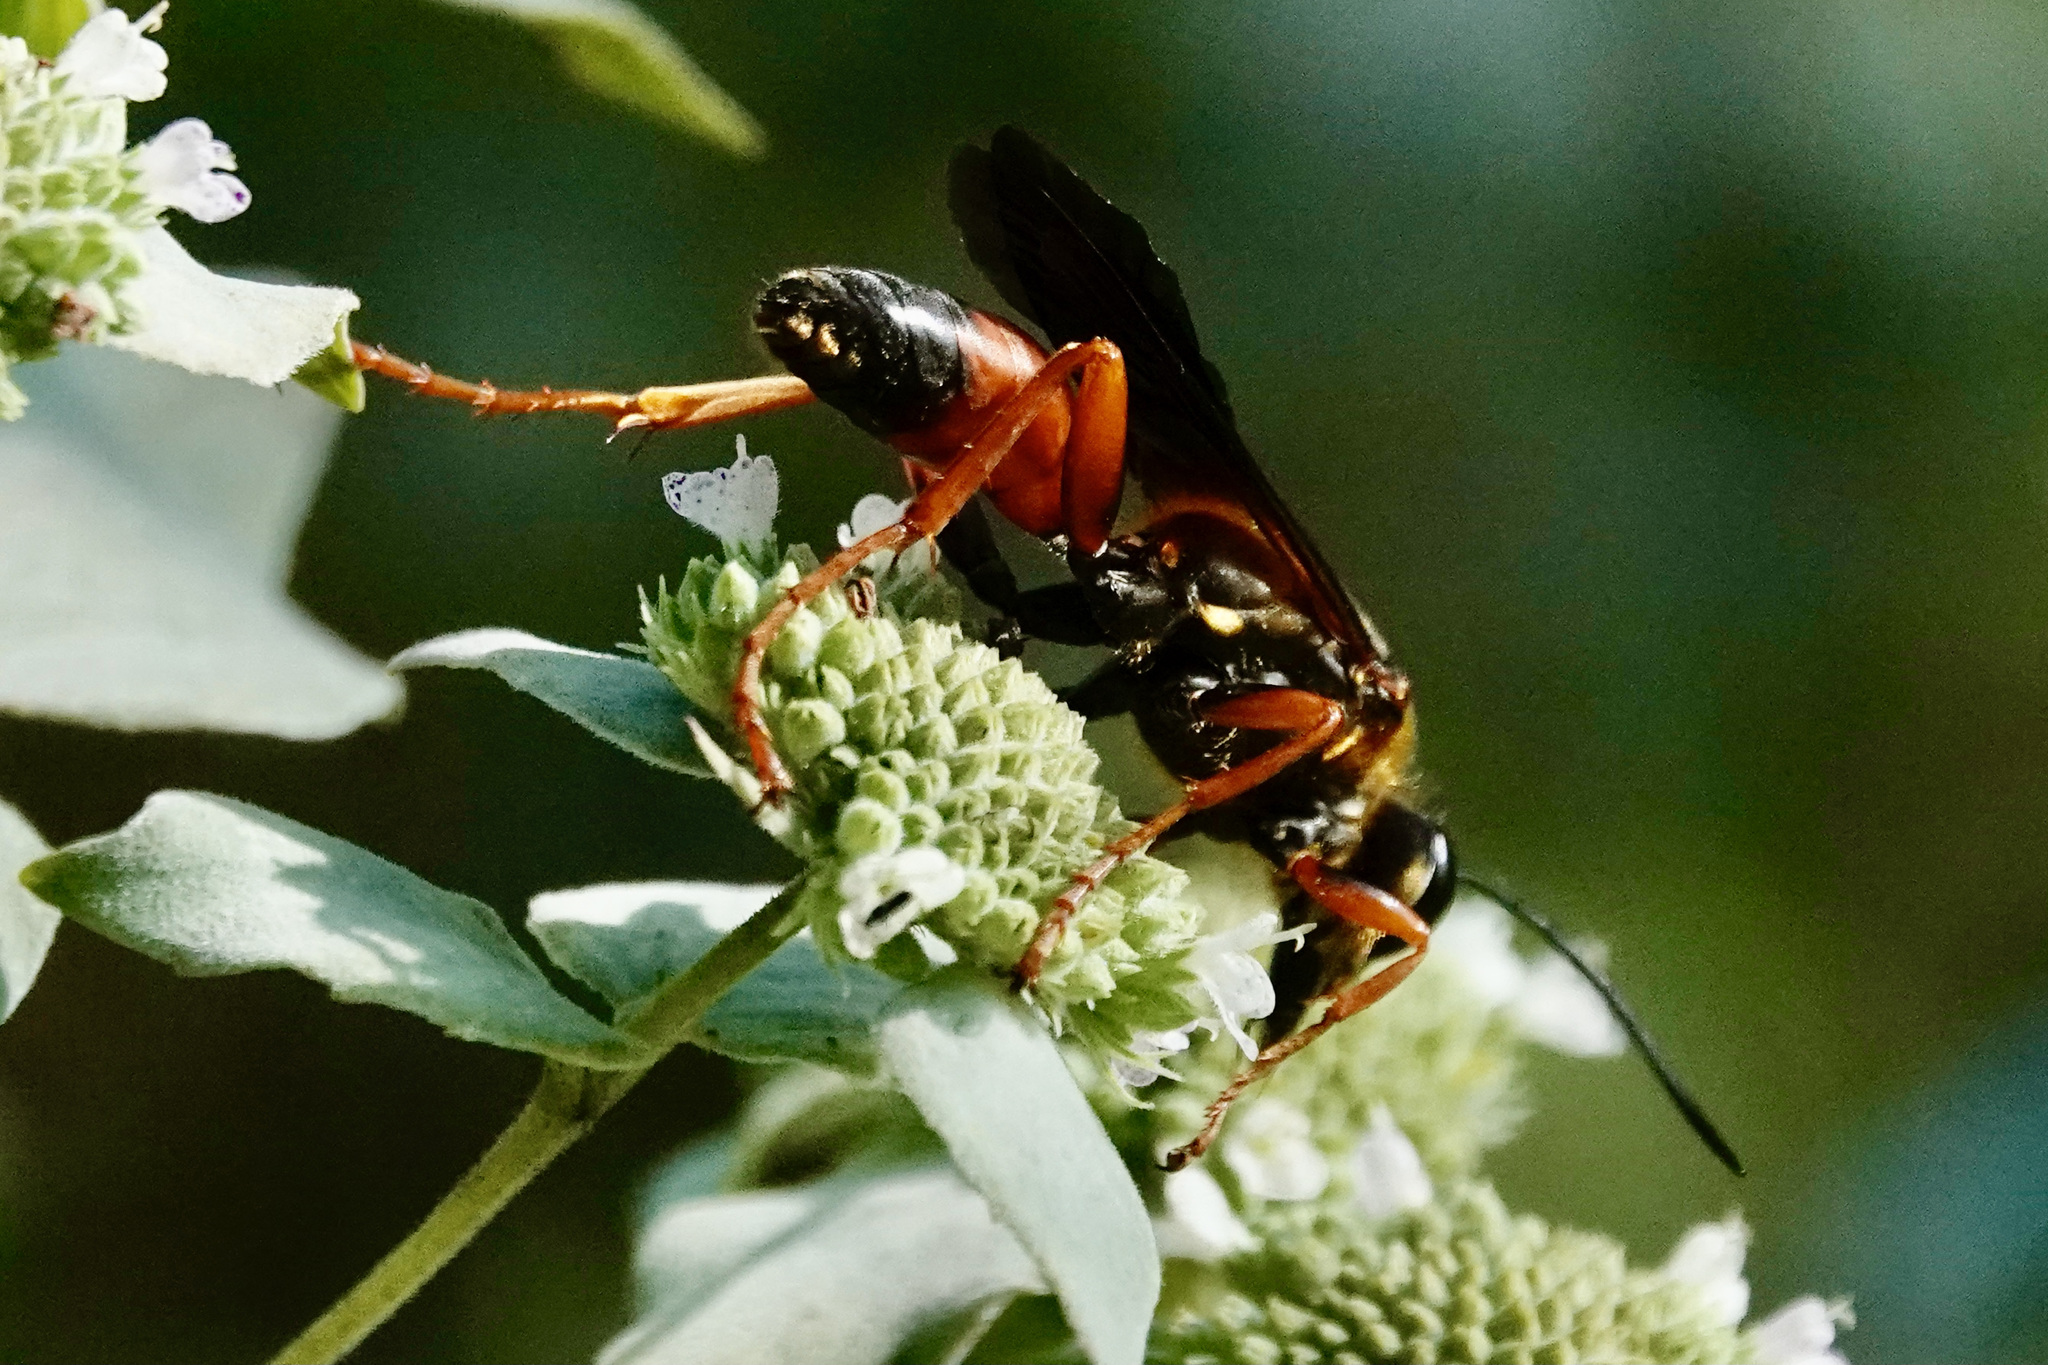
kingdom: Animalia
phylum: Arthropoda
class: Insecta
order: Hymenoptera
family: Sphecidae
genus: Sphex
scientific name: Sphex ichneumoneus
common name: Great golden digger wasp
